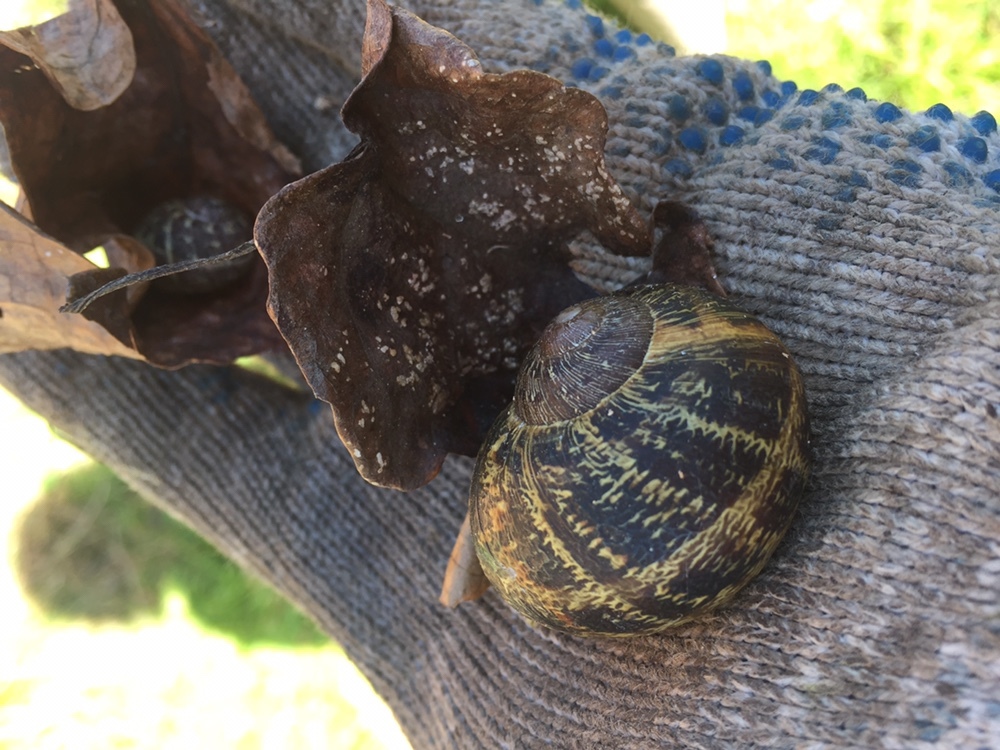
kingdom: Animalia
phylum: Mollusca
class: Gastropoda
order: Stylommatophora
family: Helicidae
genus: Cornu
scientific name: Cornu aspersum
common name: Brown garden snail
